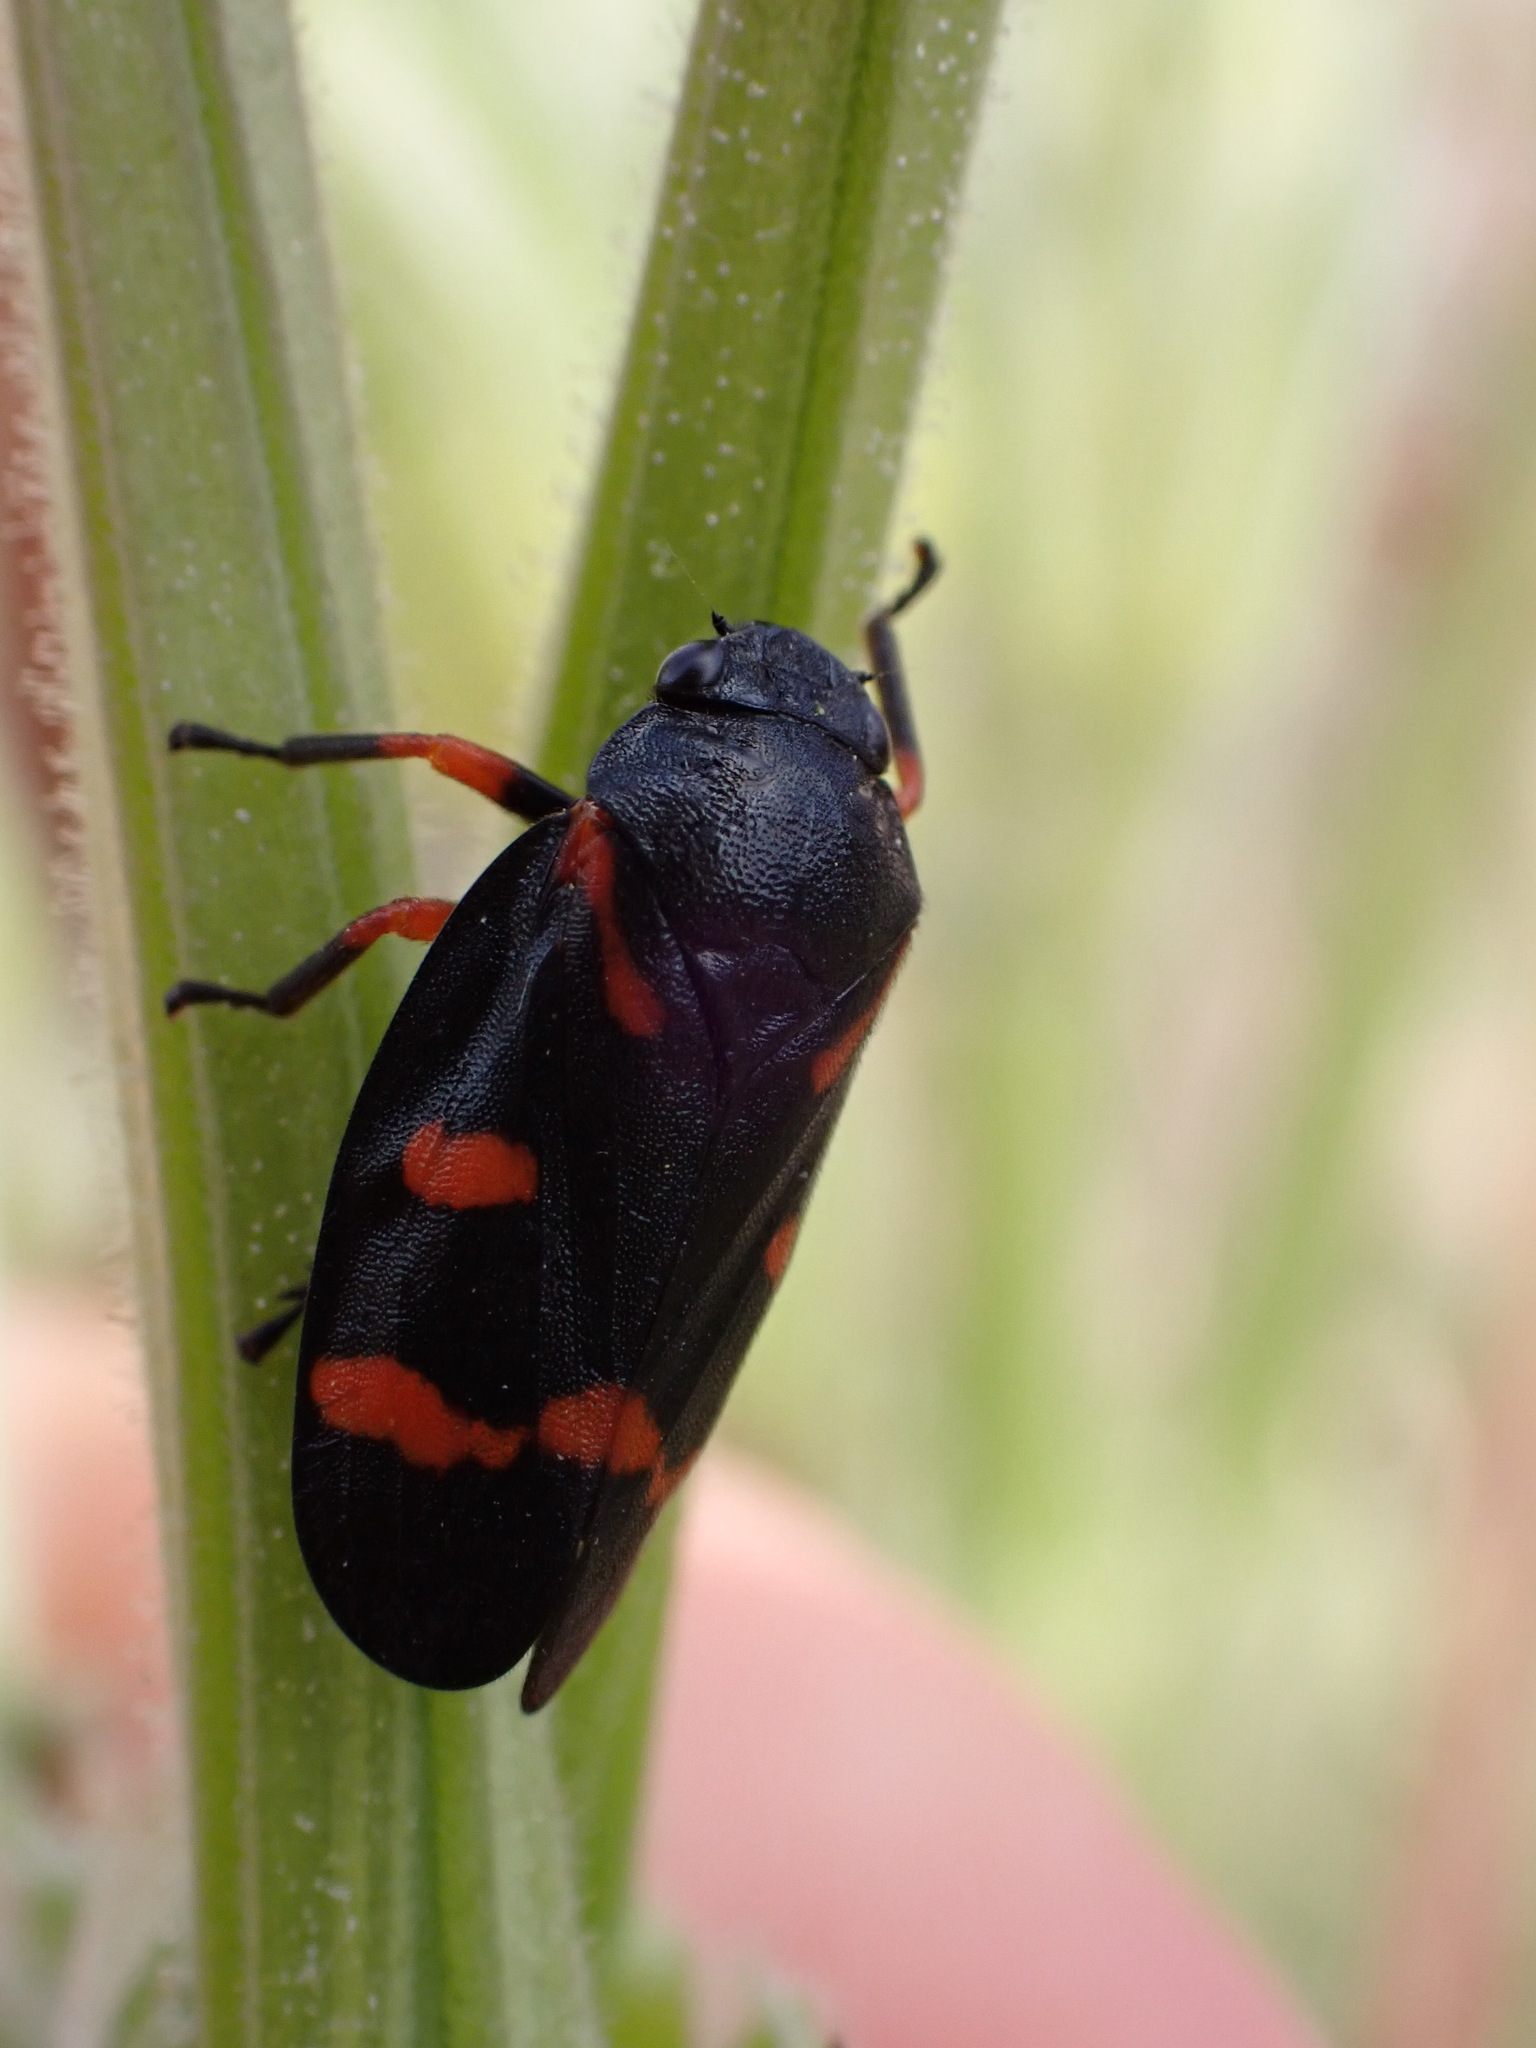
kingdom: Animalia
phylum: Arthropoda
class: Insecta
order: Hemiptera
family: Cercopidae
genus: Cercopis
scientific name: Cercopis intermedia
